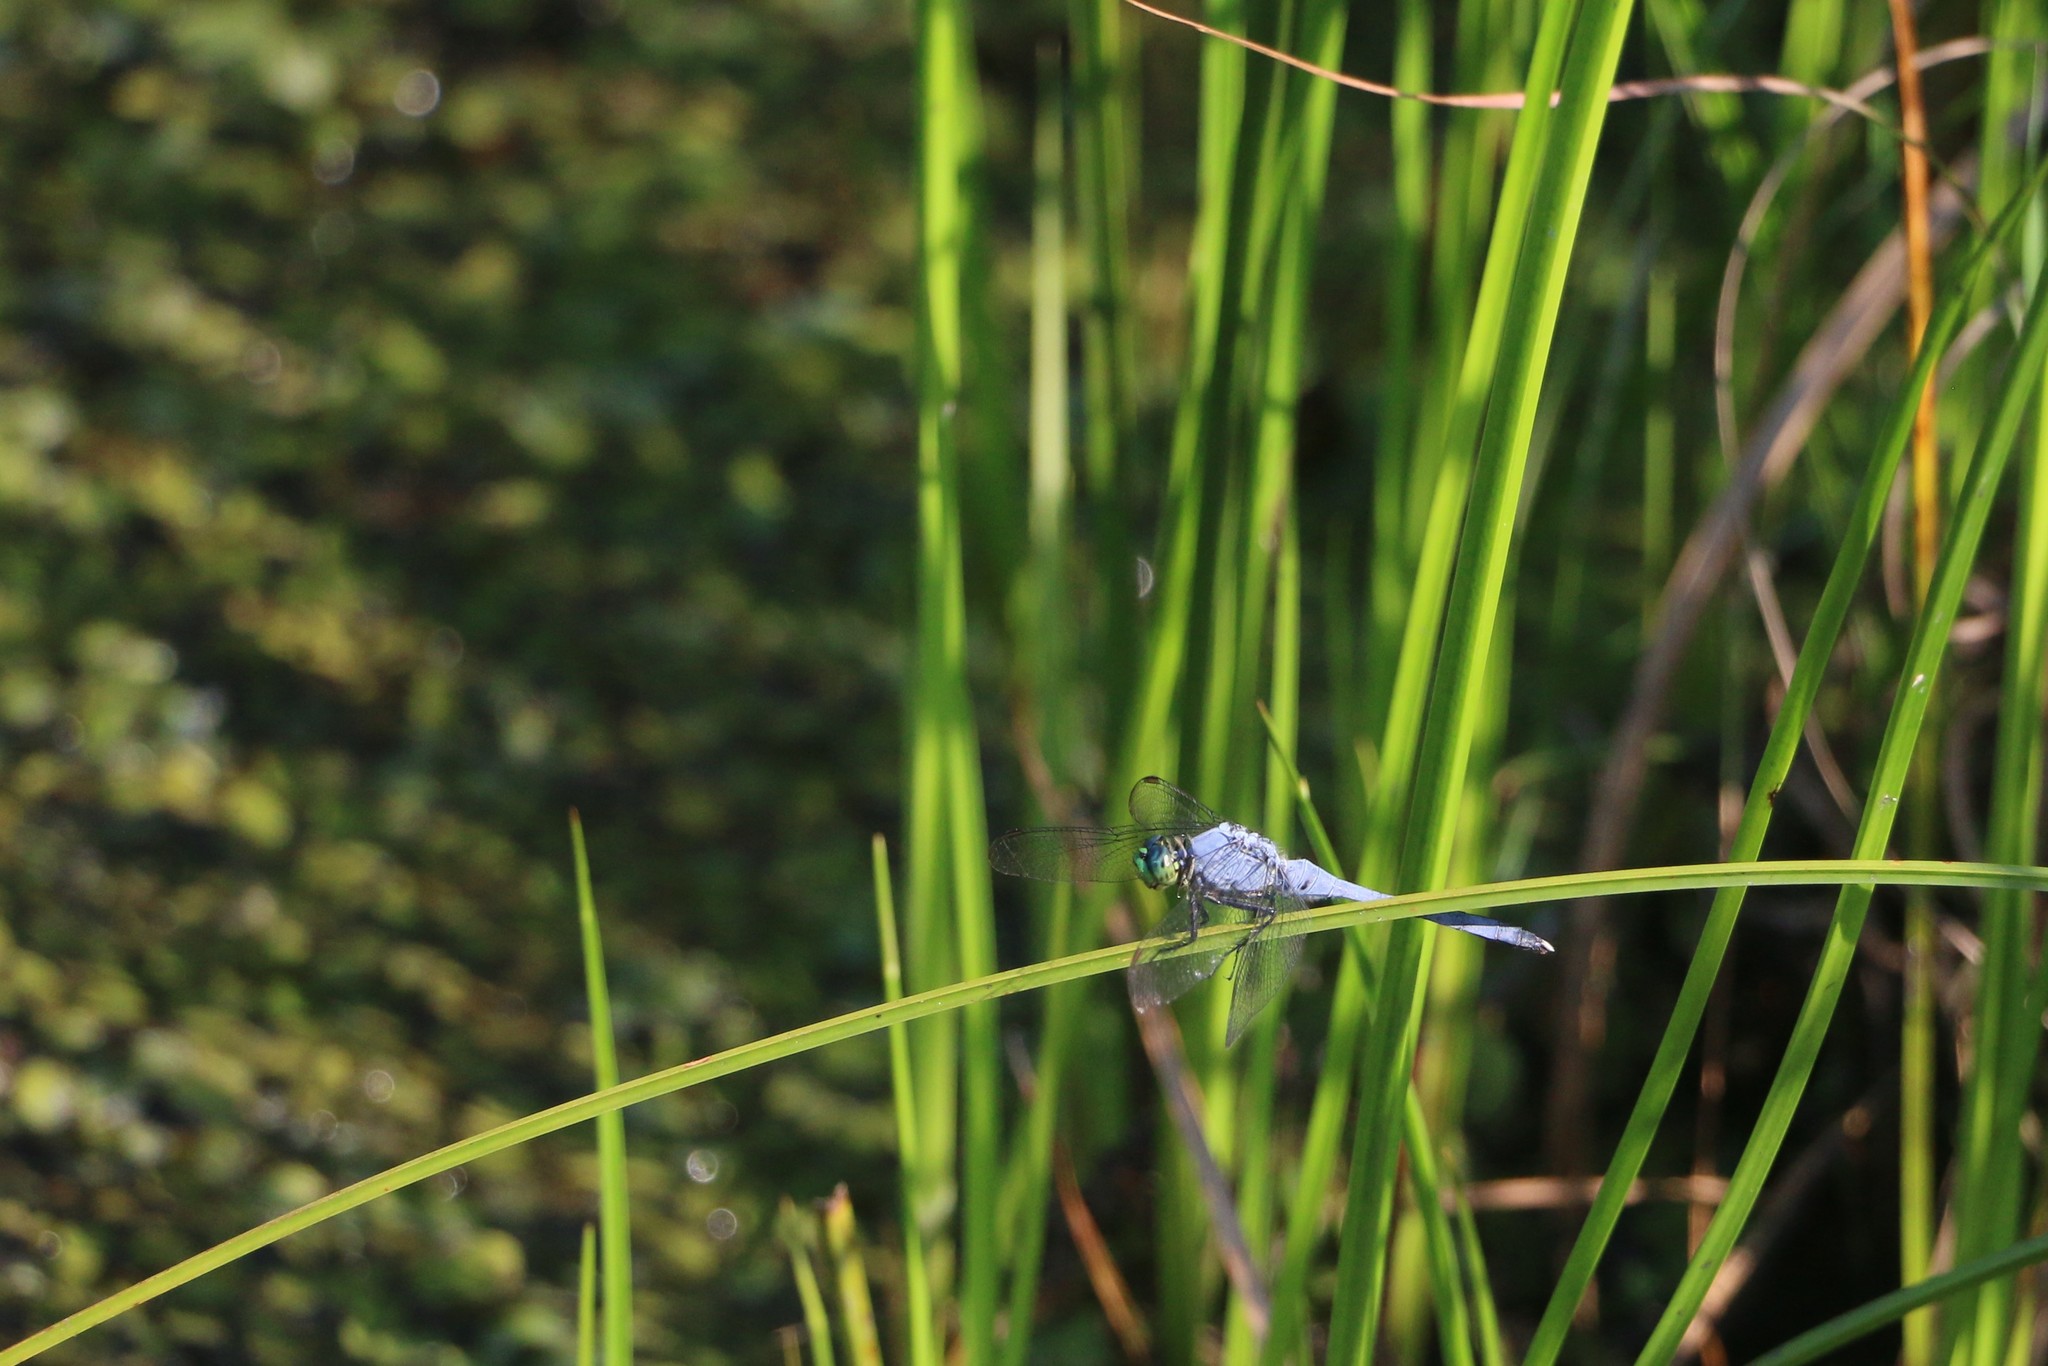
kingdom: Animalia
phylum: Arthropoda
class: Insecta
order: Odonata
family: Libellulidae
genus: Erythemis
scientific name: Erythemis simplicicollis
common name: Eastern pondhawk
